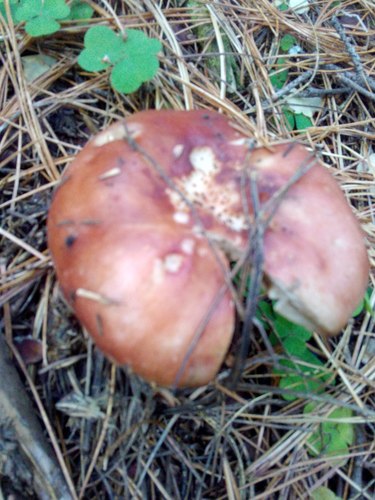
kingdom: Fungi
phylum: Basidiomycota
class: Agaricomycetes
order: Russulales
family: Russulaceae
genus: Russula
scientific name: Russula
